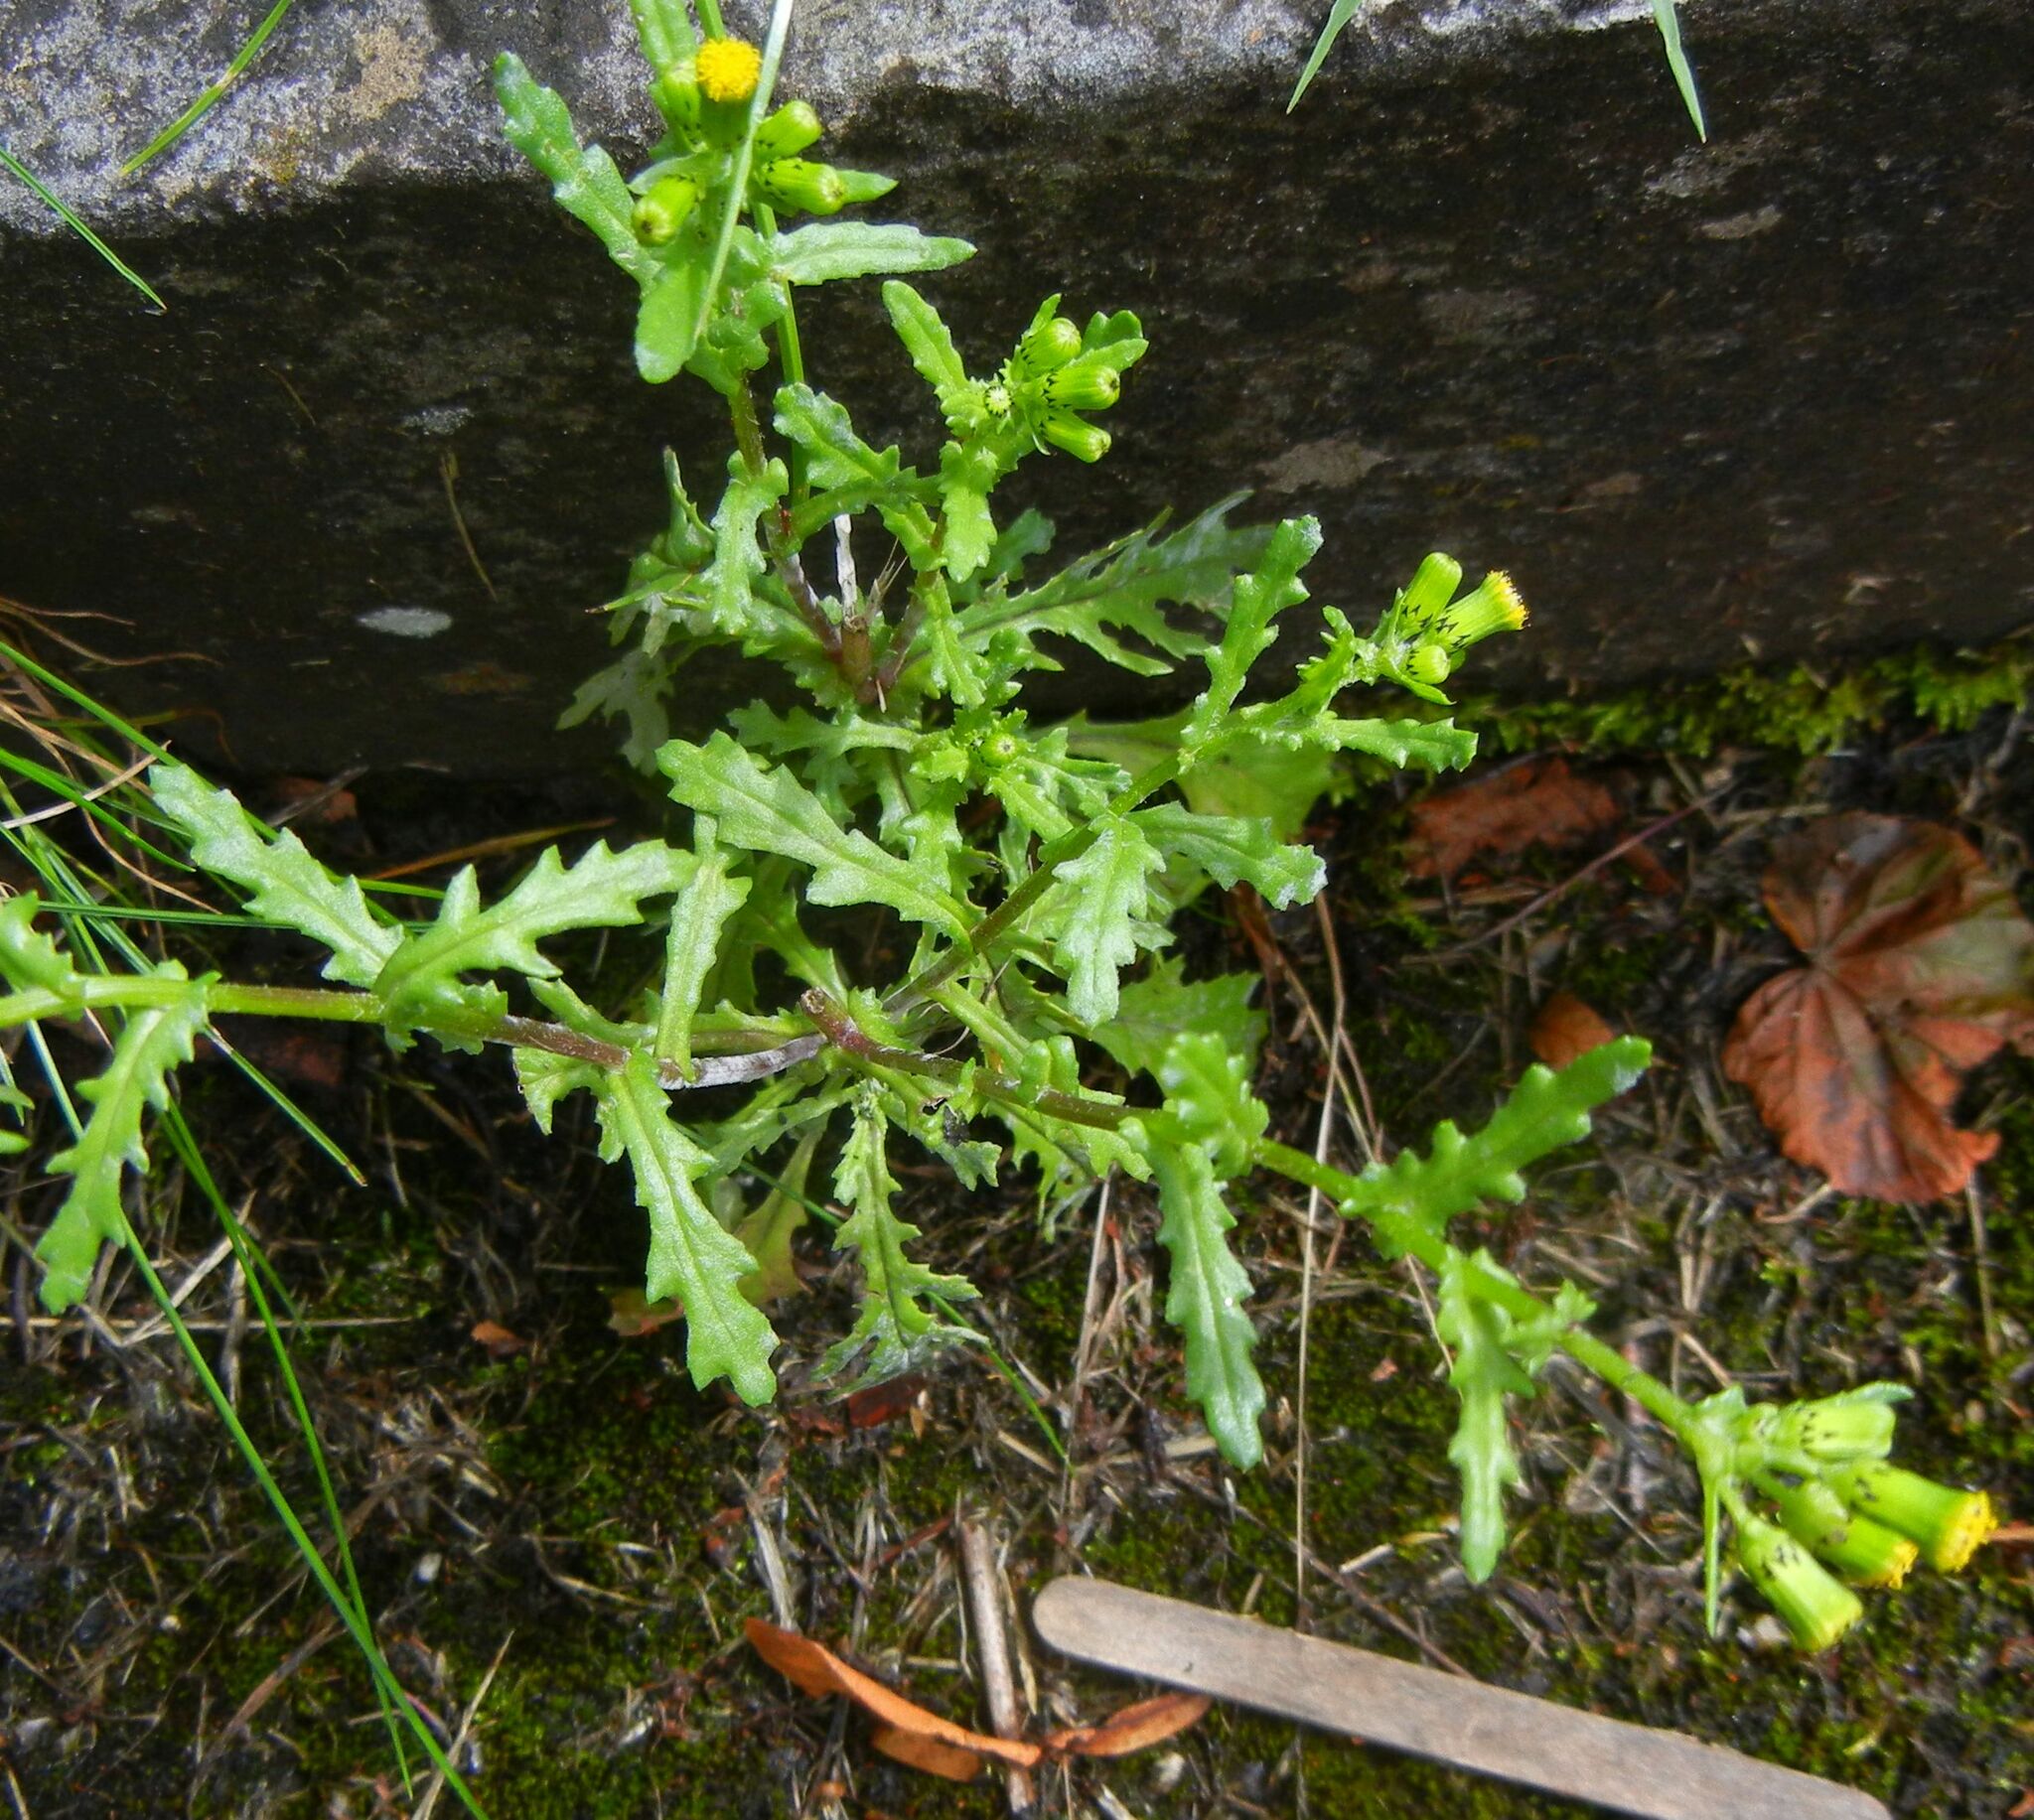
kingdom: Plantae
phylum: Tracheophyta
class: Magnoliopsida
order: Asterales
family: Asteraceae
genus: Senecio
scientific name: Senecio vulgaris
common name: Old-man-in-the-spring
